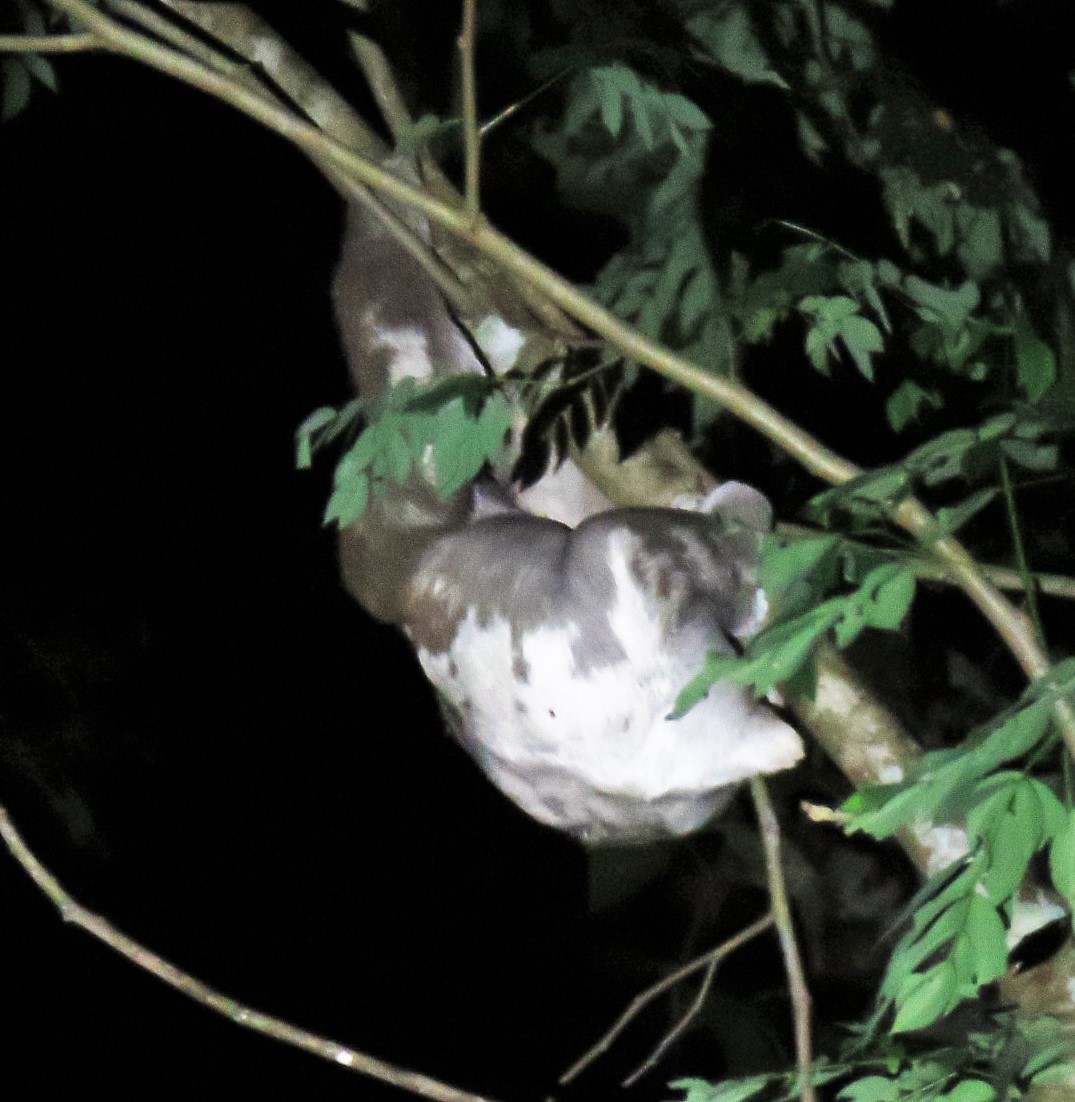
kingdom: Animalia
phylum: Chordata
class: Mammalia
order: Pilosa
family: Bradypodidae
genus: Bradypus
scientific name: Bradypus variegatus
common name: Brown-throated three-toed sloth
